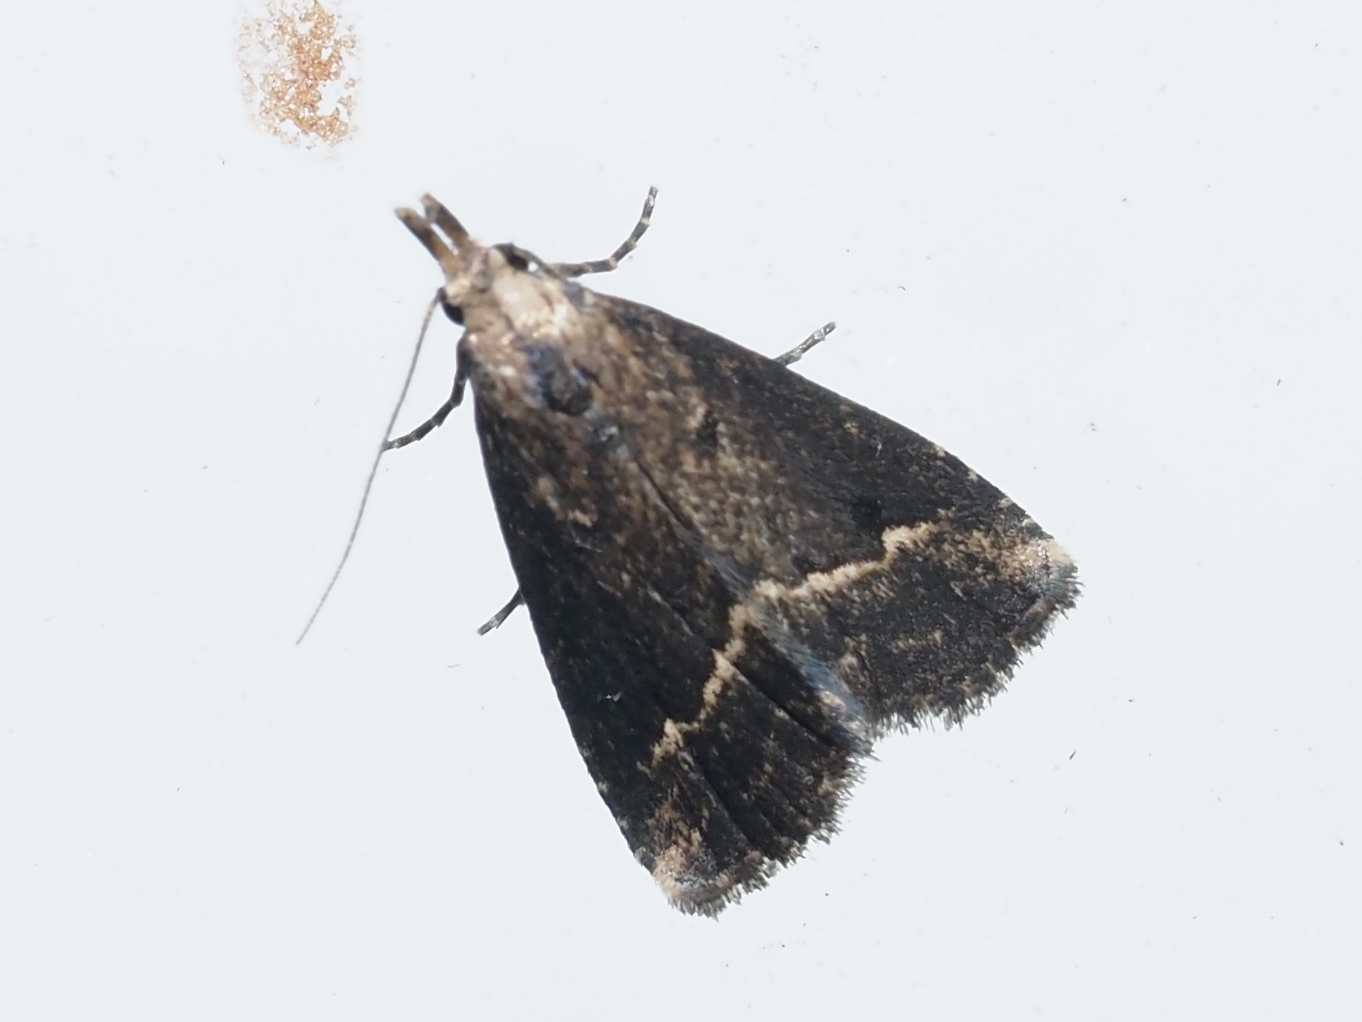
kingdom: Animalia
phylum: Arthropoda
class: Insecta
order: Lepidoptera
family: Erebidae
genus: Schrankia
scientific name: Schrankia
